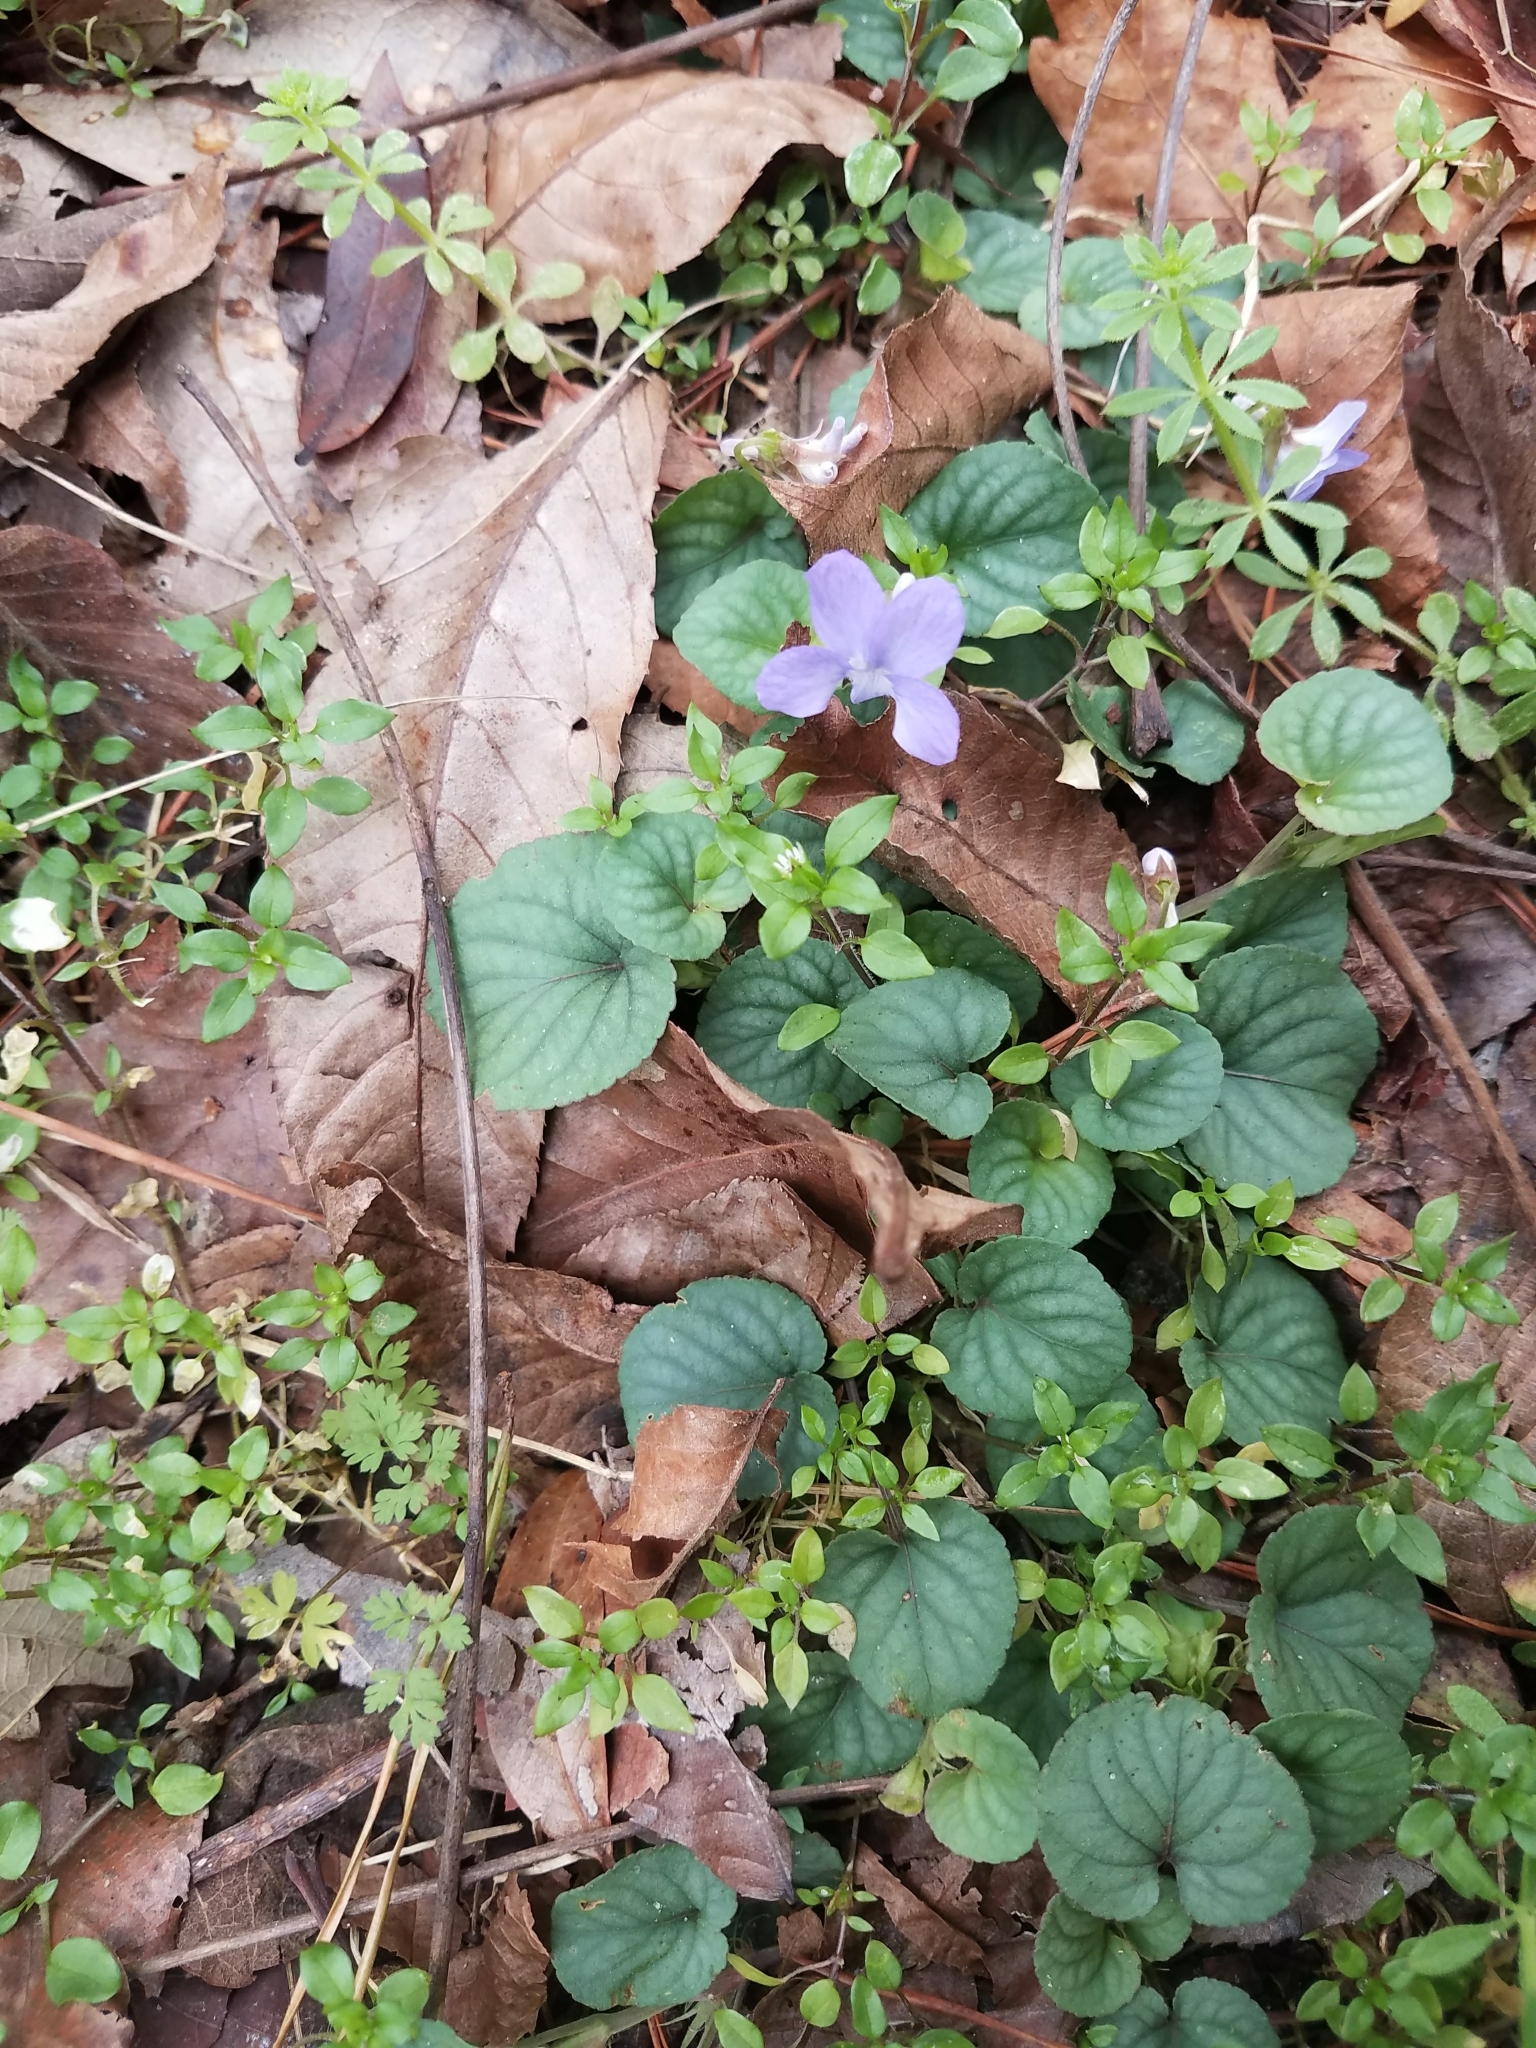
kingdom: Plantae
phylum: Tracheophyta
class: Magnoliopsida
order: Malpighiales
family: Violaceae
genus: Viola
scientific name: Viola walteri
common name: Prostrate southern violet
